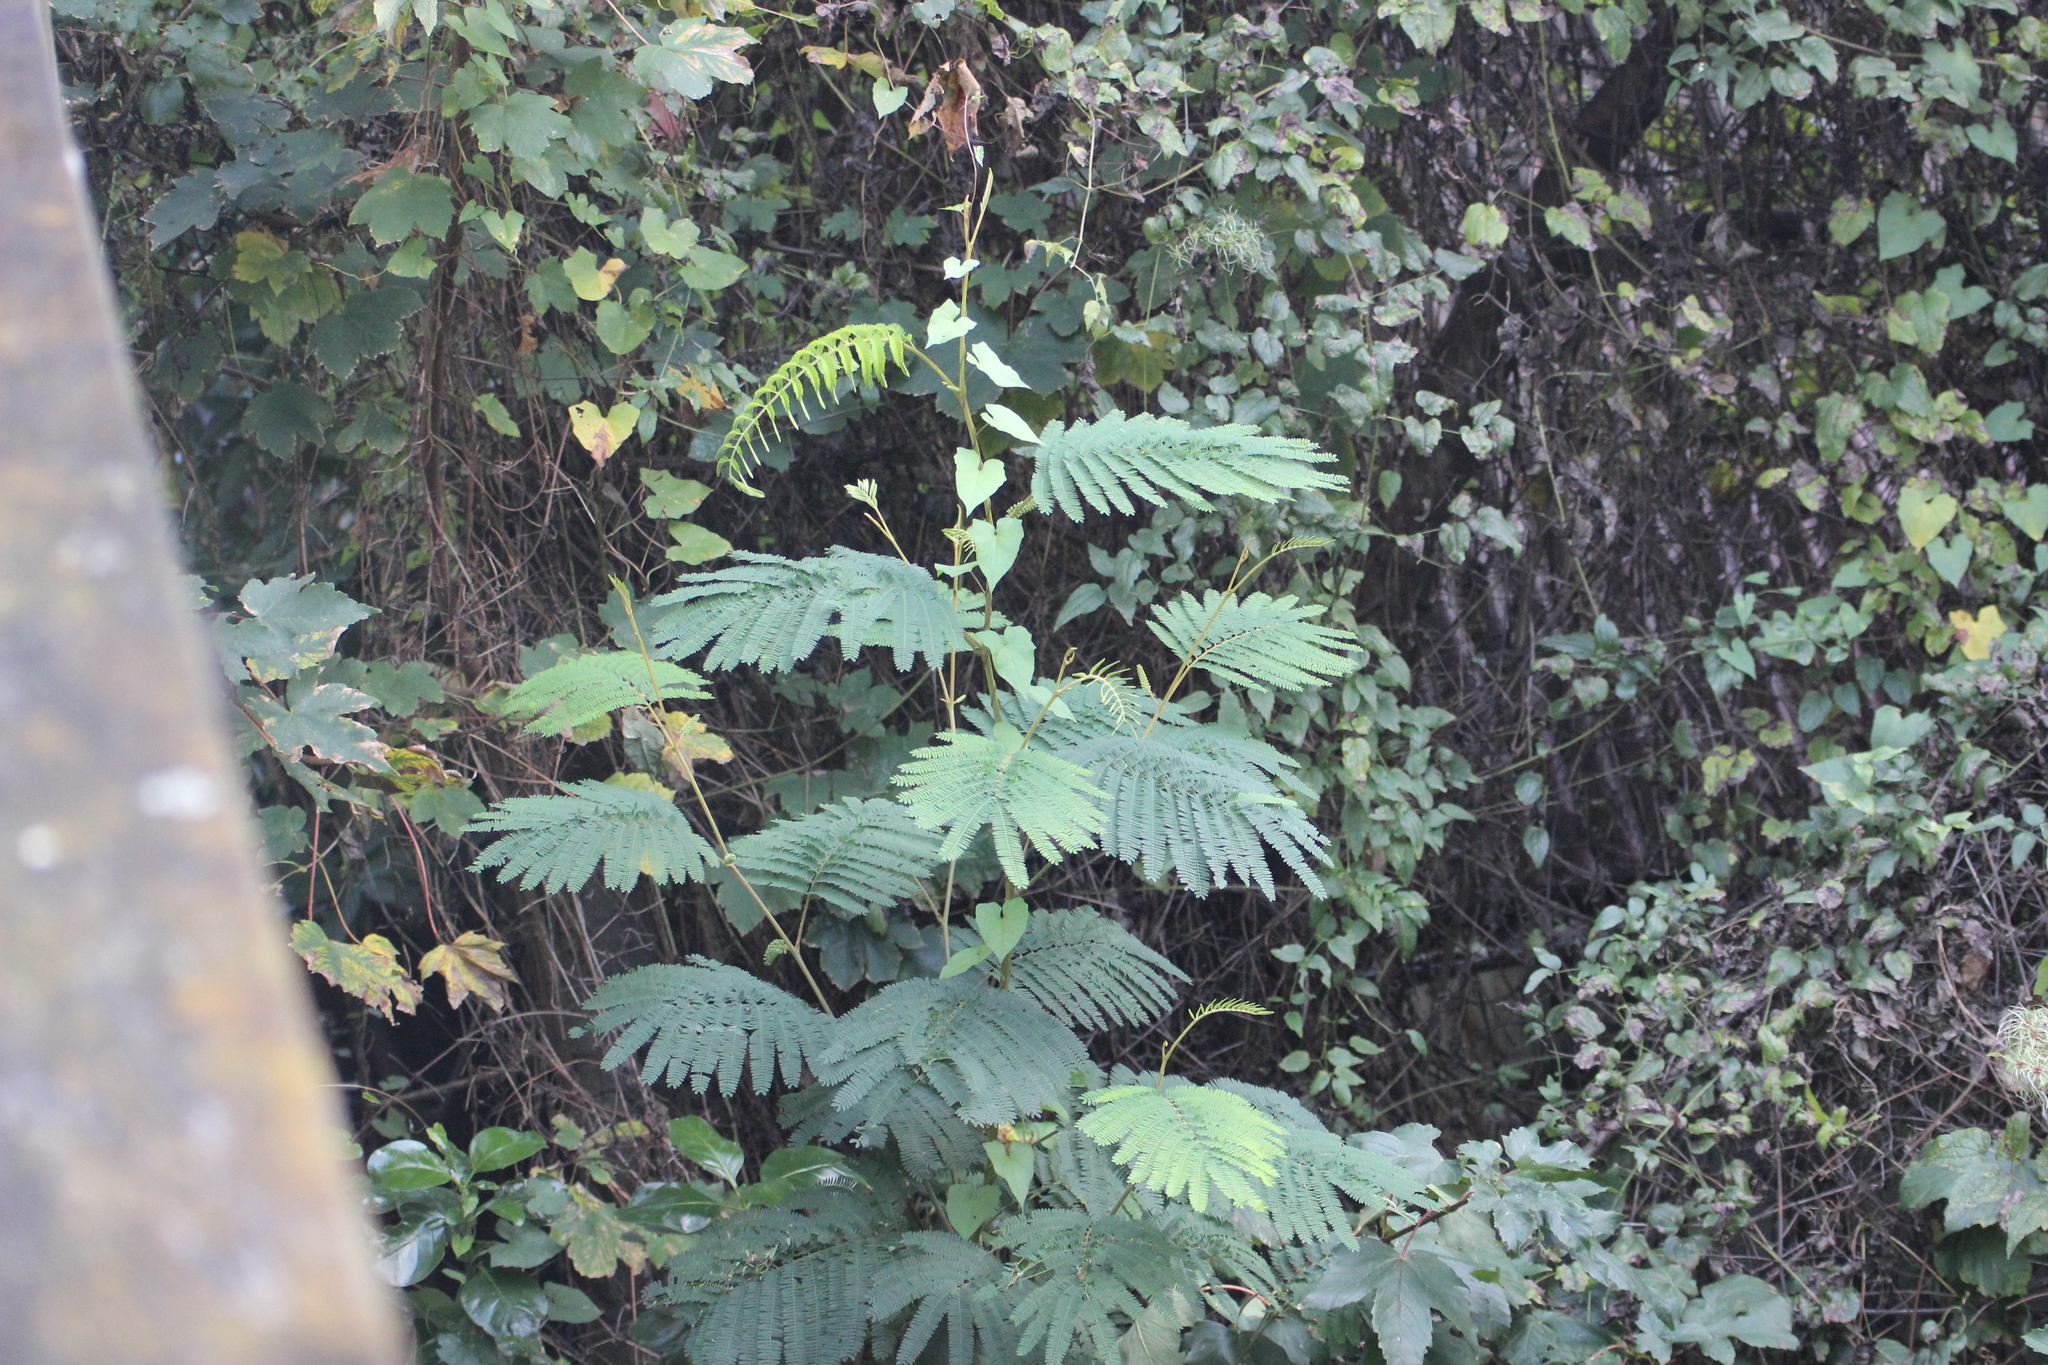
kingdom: Plantae
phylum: Tracheophyta
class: Magnoliopsida
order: Fabales
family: Fabaceae
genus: Paraserianthes
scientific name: Paraserianthes lophantha
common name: Plume albizia
